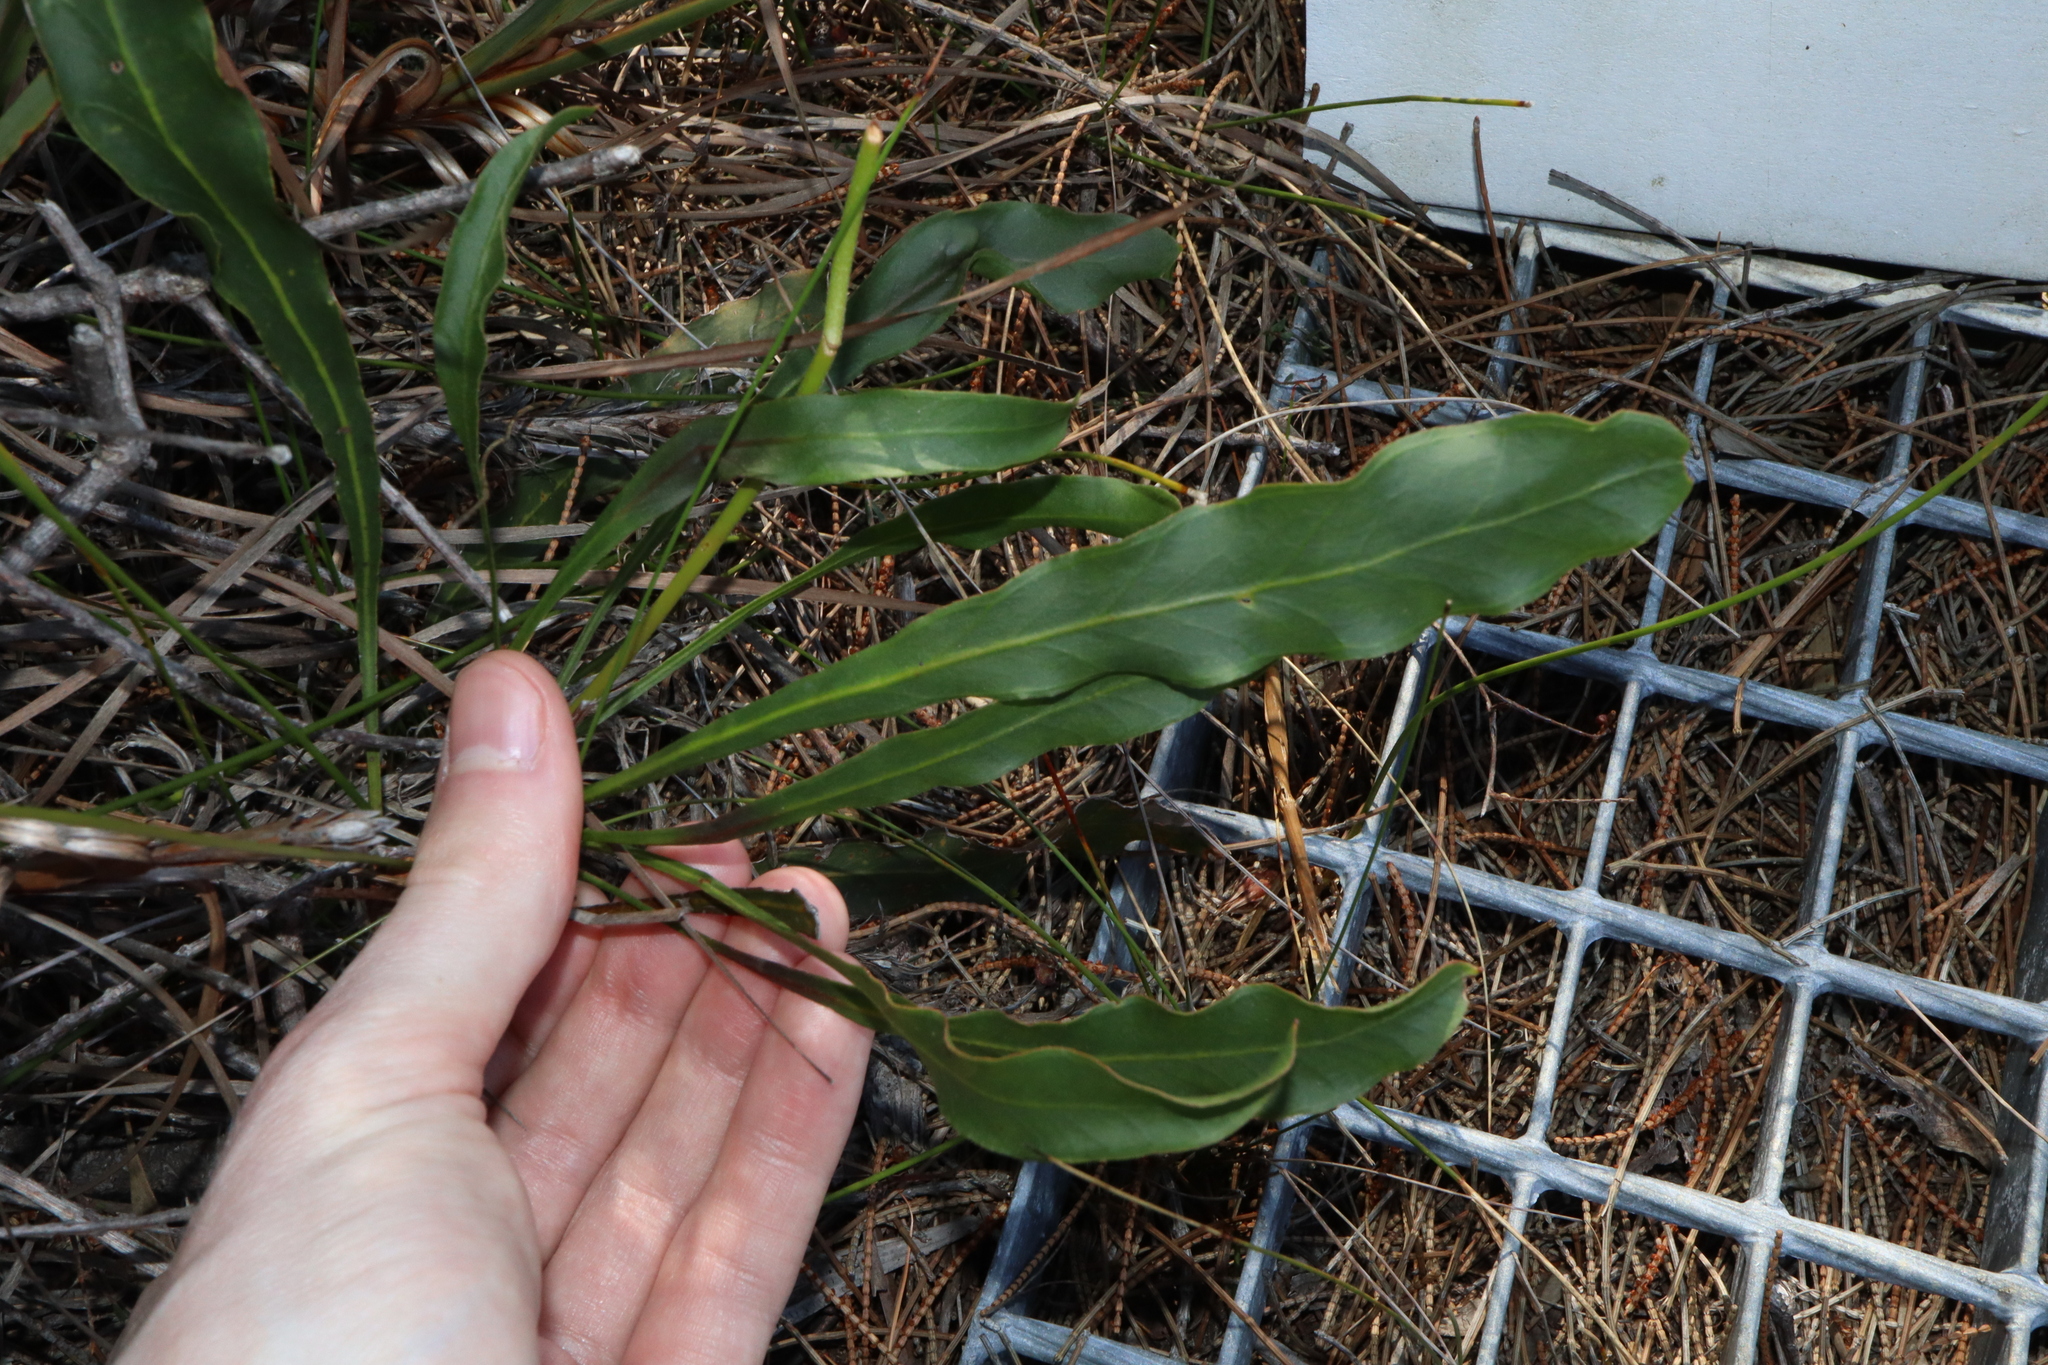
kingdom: Plantae
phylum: Tracheophyta
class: Magnoliopsida
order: Proteales
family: Proteaceae
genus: Conospermum
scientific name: Conospermum longifolium
